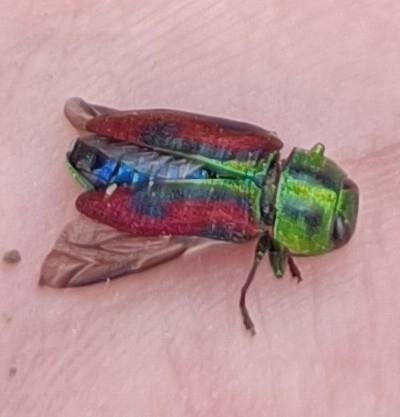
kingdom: Animalia
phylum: Arthropoda
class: Insecta
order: Coleoptera
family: Buprestidae
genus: Anthaxia
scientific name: Anthaxia candens
